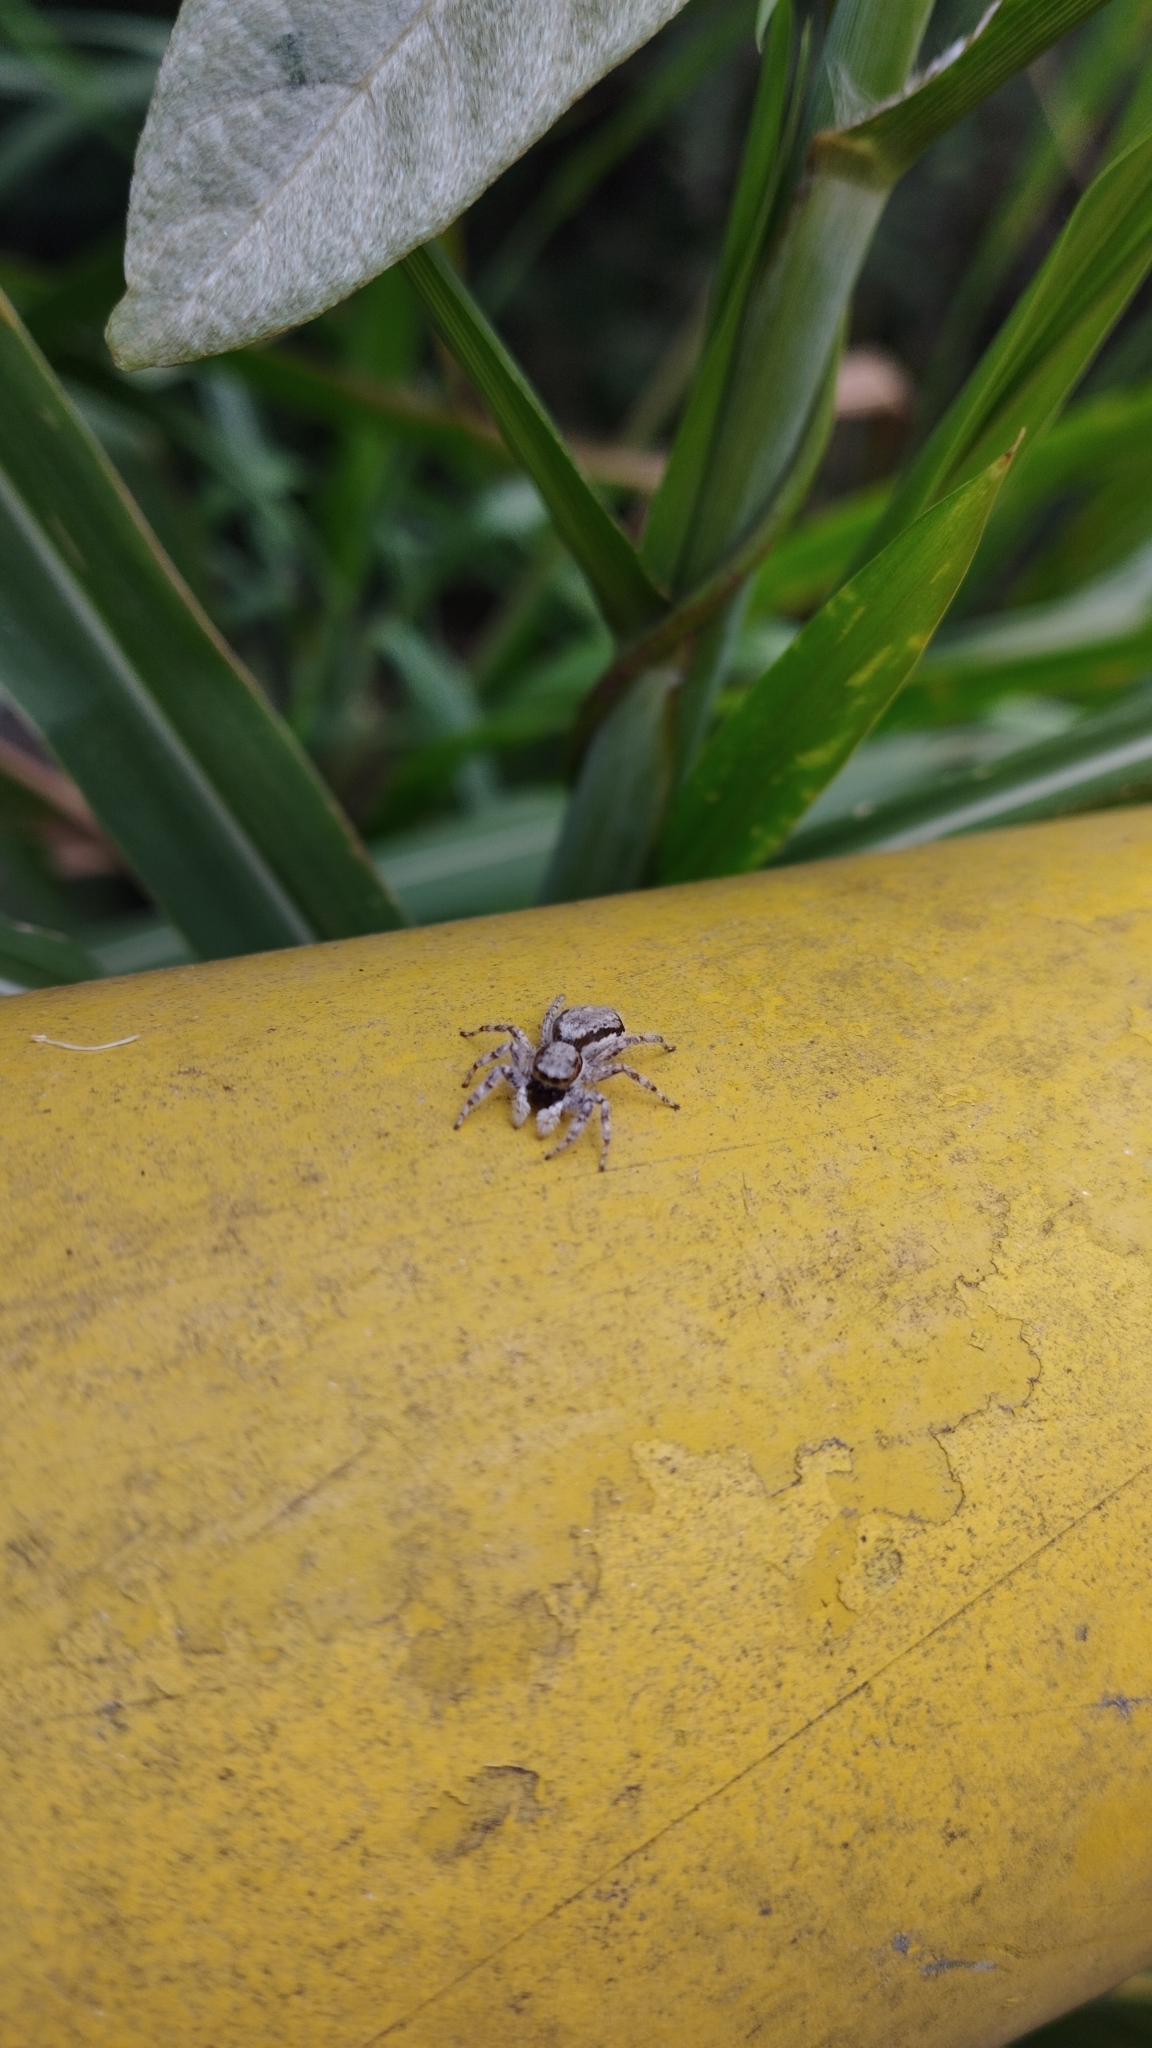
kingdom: Animalia
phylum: Arthropoda
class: Arachnida
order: Araneae
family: Salticidae
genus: Menemerus
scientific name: Menemerus bivittatus
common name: Gray wall jumper
